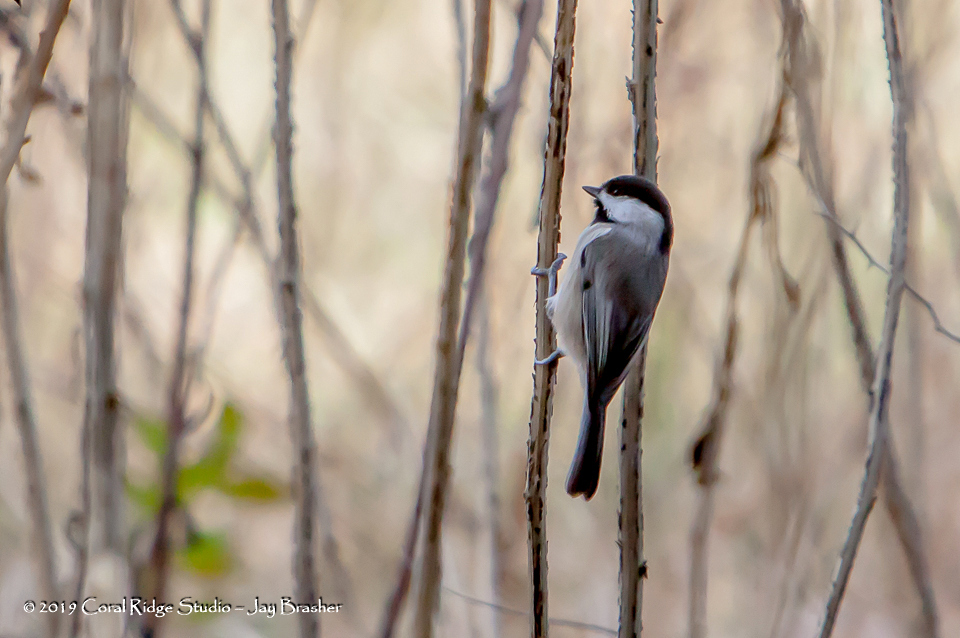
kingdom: Animalia
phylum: Chordata
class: Aves
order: Passeriformes
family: Paridae
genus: Poecile
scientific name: Poecile carolinensis
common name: Carolina chickadee
